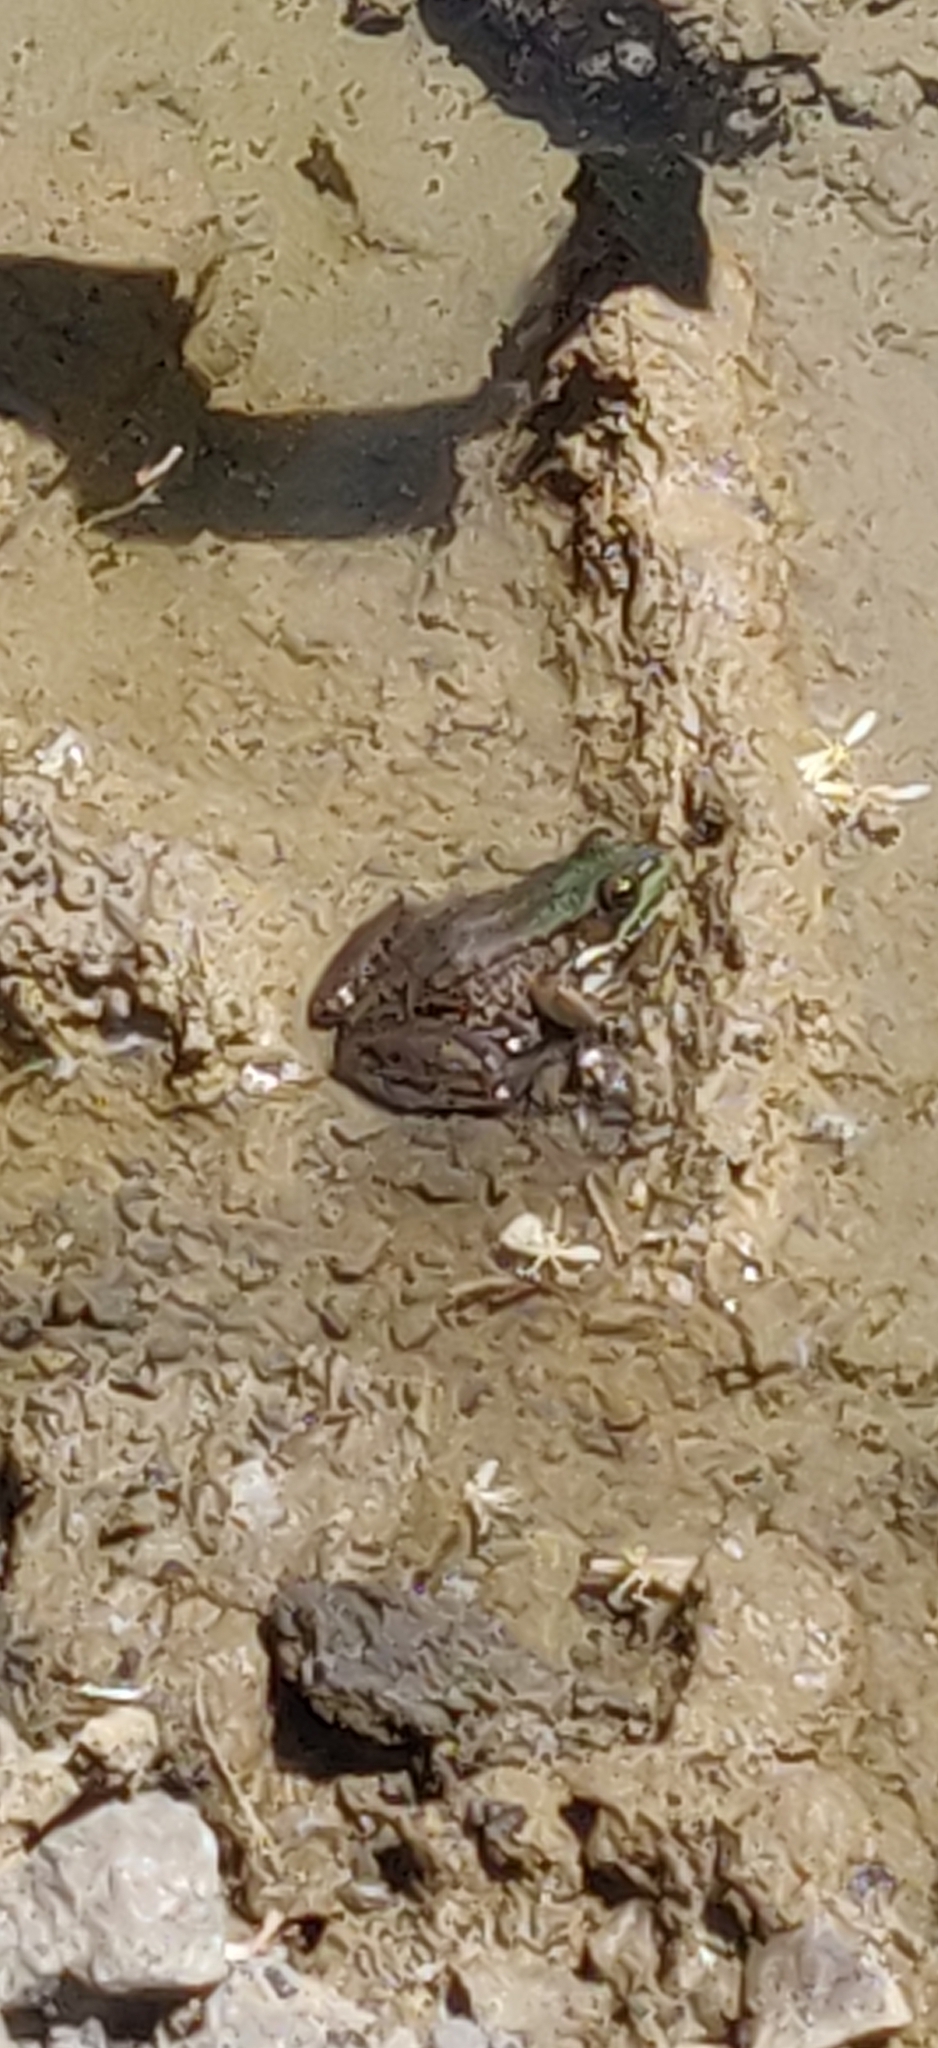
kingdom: Animalia
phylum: Chordata
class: Amphibia
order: Anura
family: Ranidae
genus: Lithobates
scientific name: Lithobates clamitans
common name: Green frog
